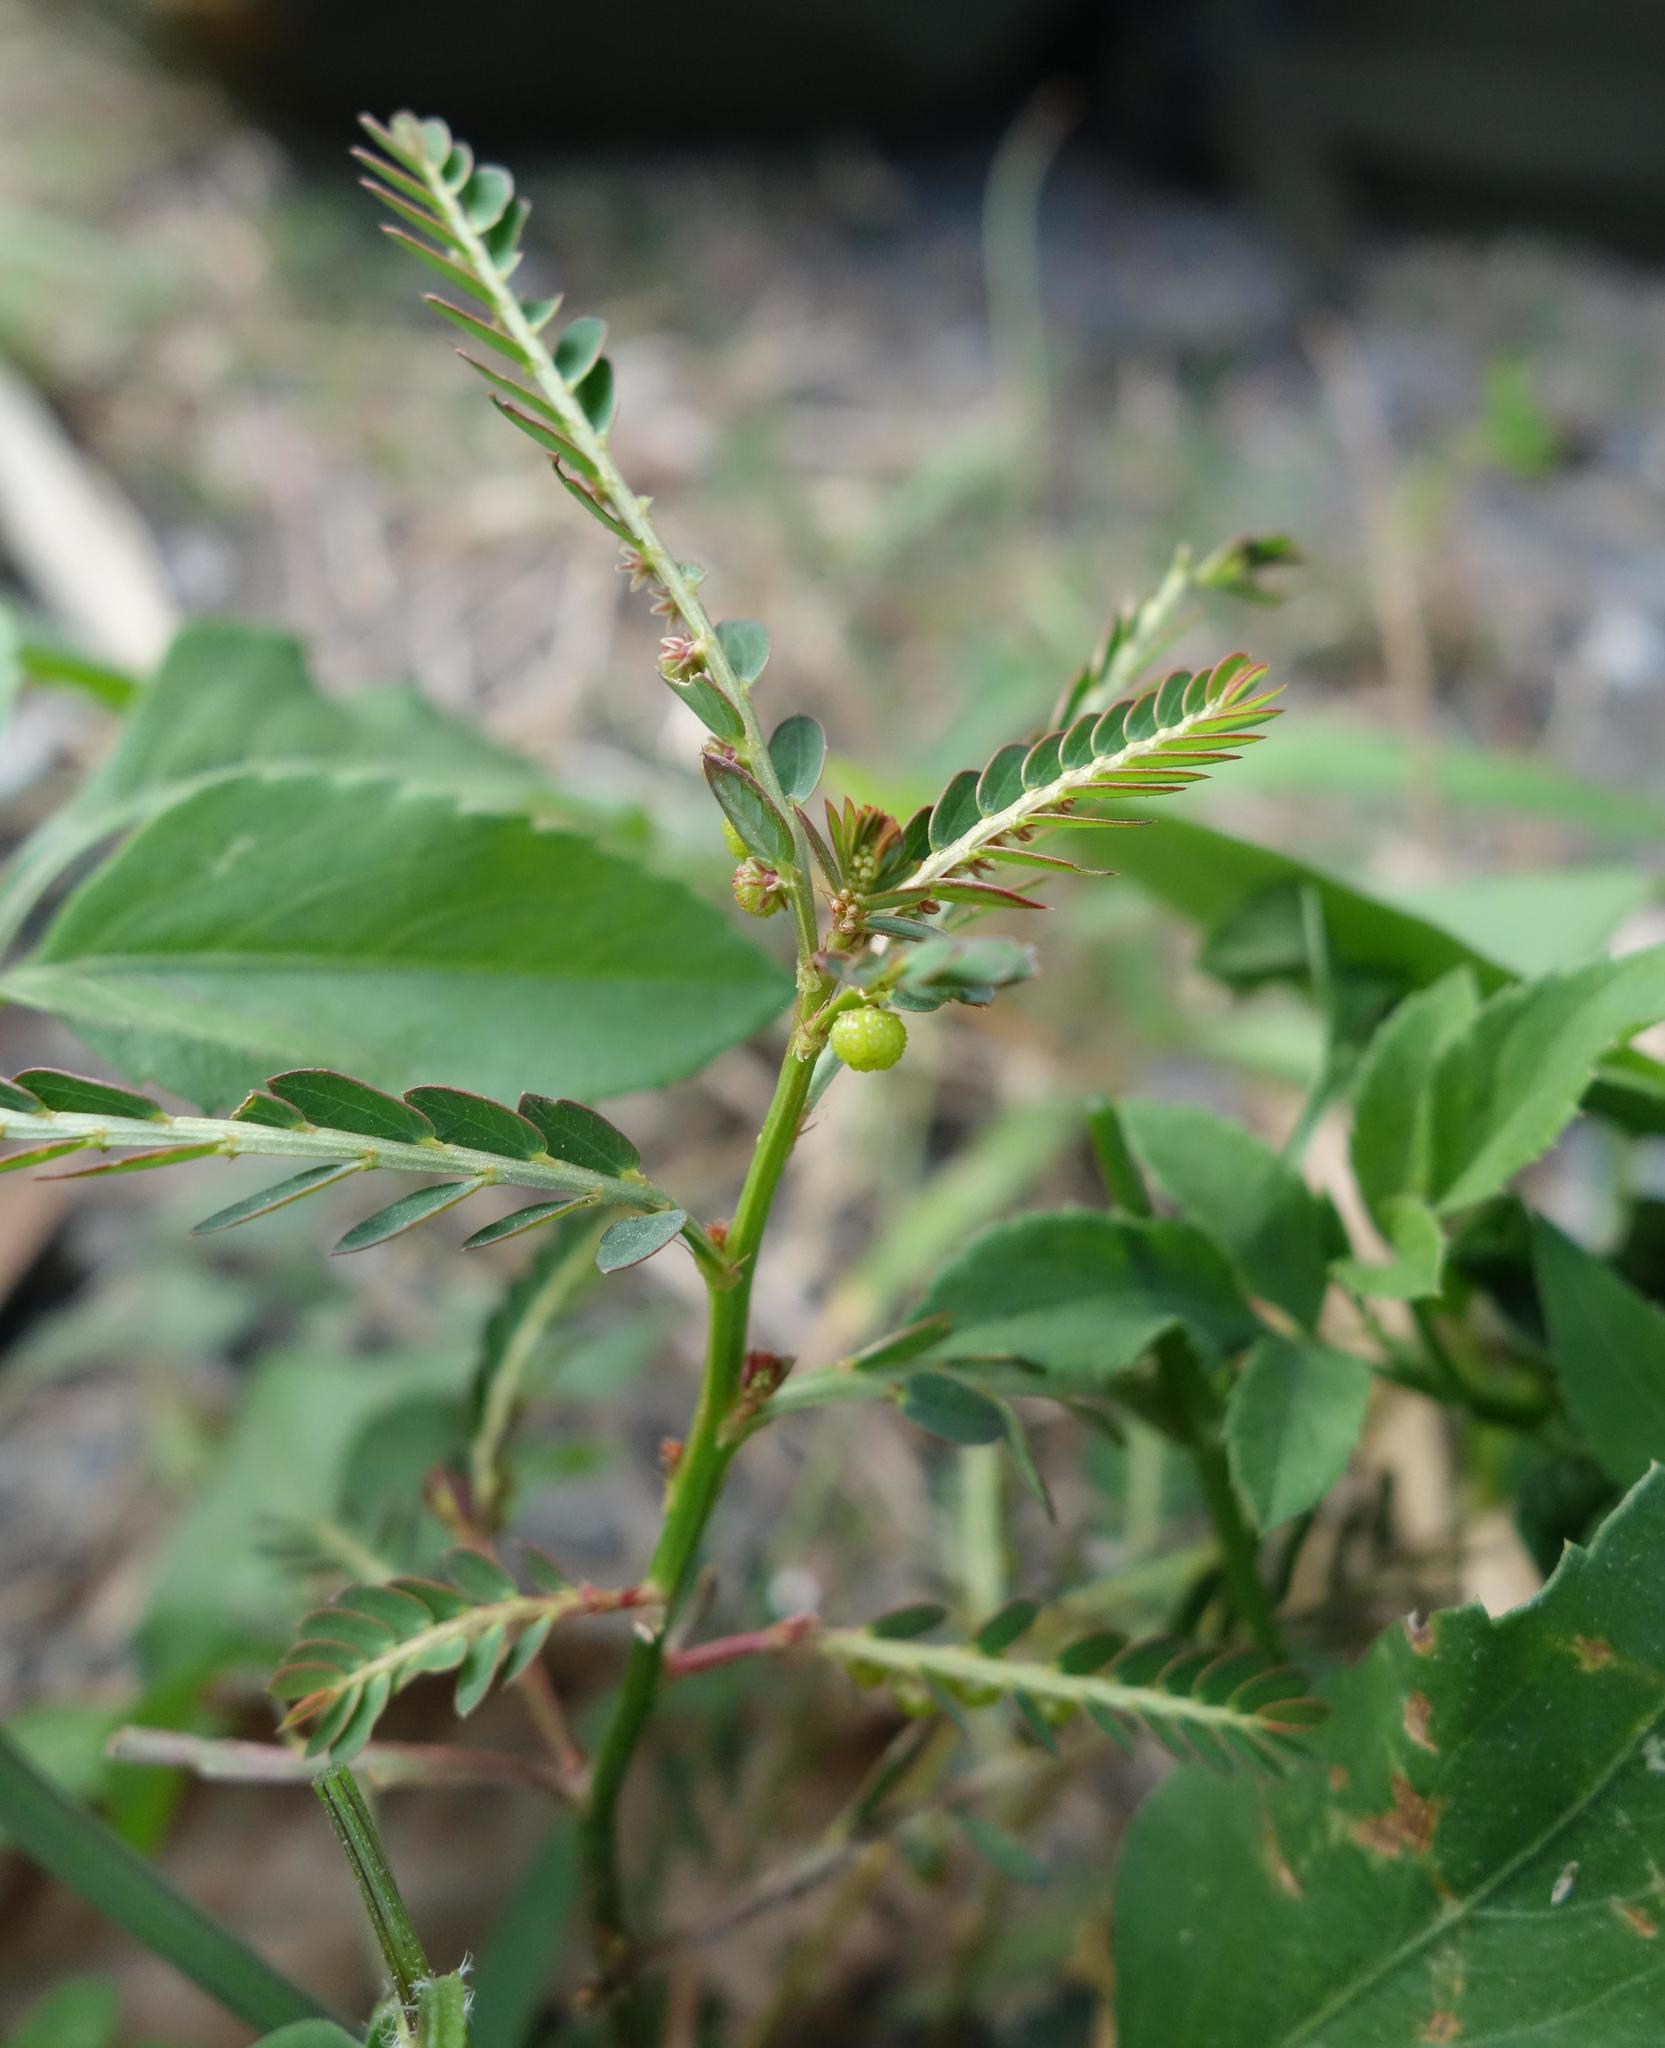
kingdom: Plantae
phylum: Tracheophyta
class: Magnoliopsida
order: Malpighiales
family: Phyllanthaceae
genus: Phyllanthus
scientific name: Phyllanthus urinaria
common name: Chamber bitter
